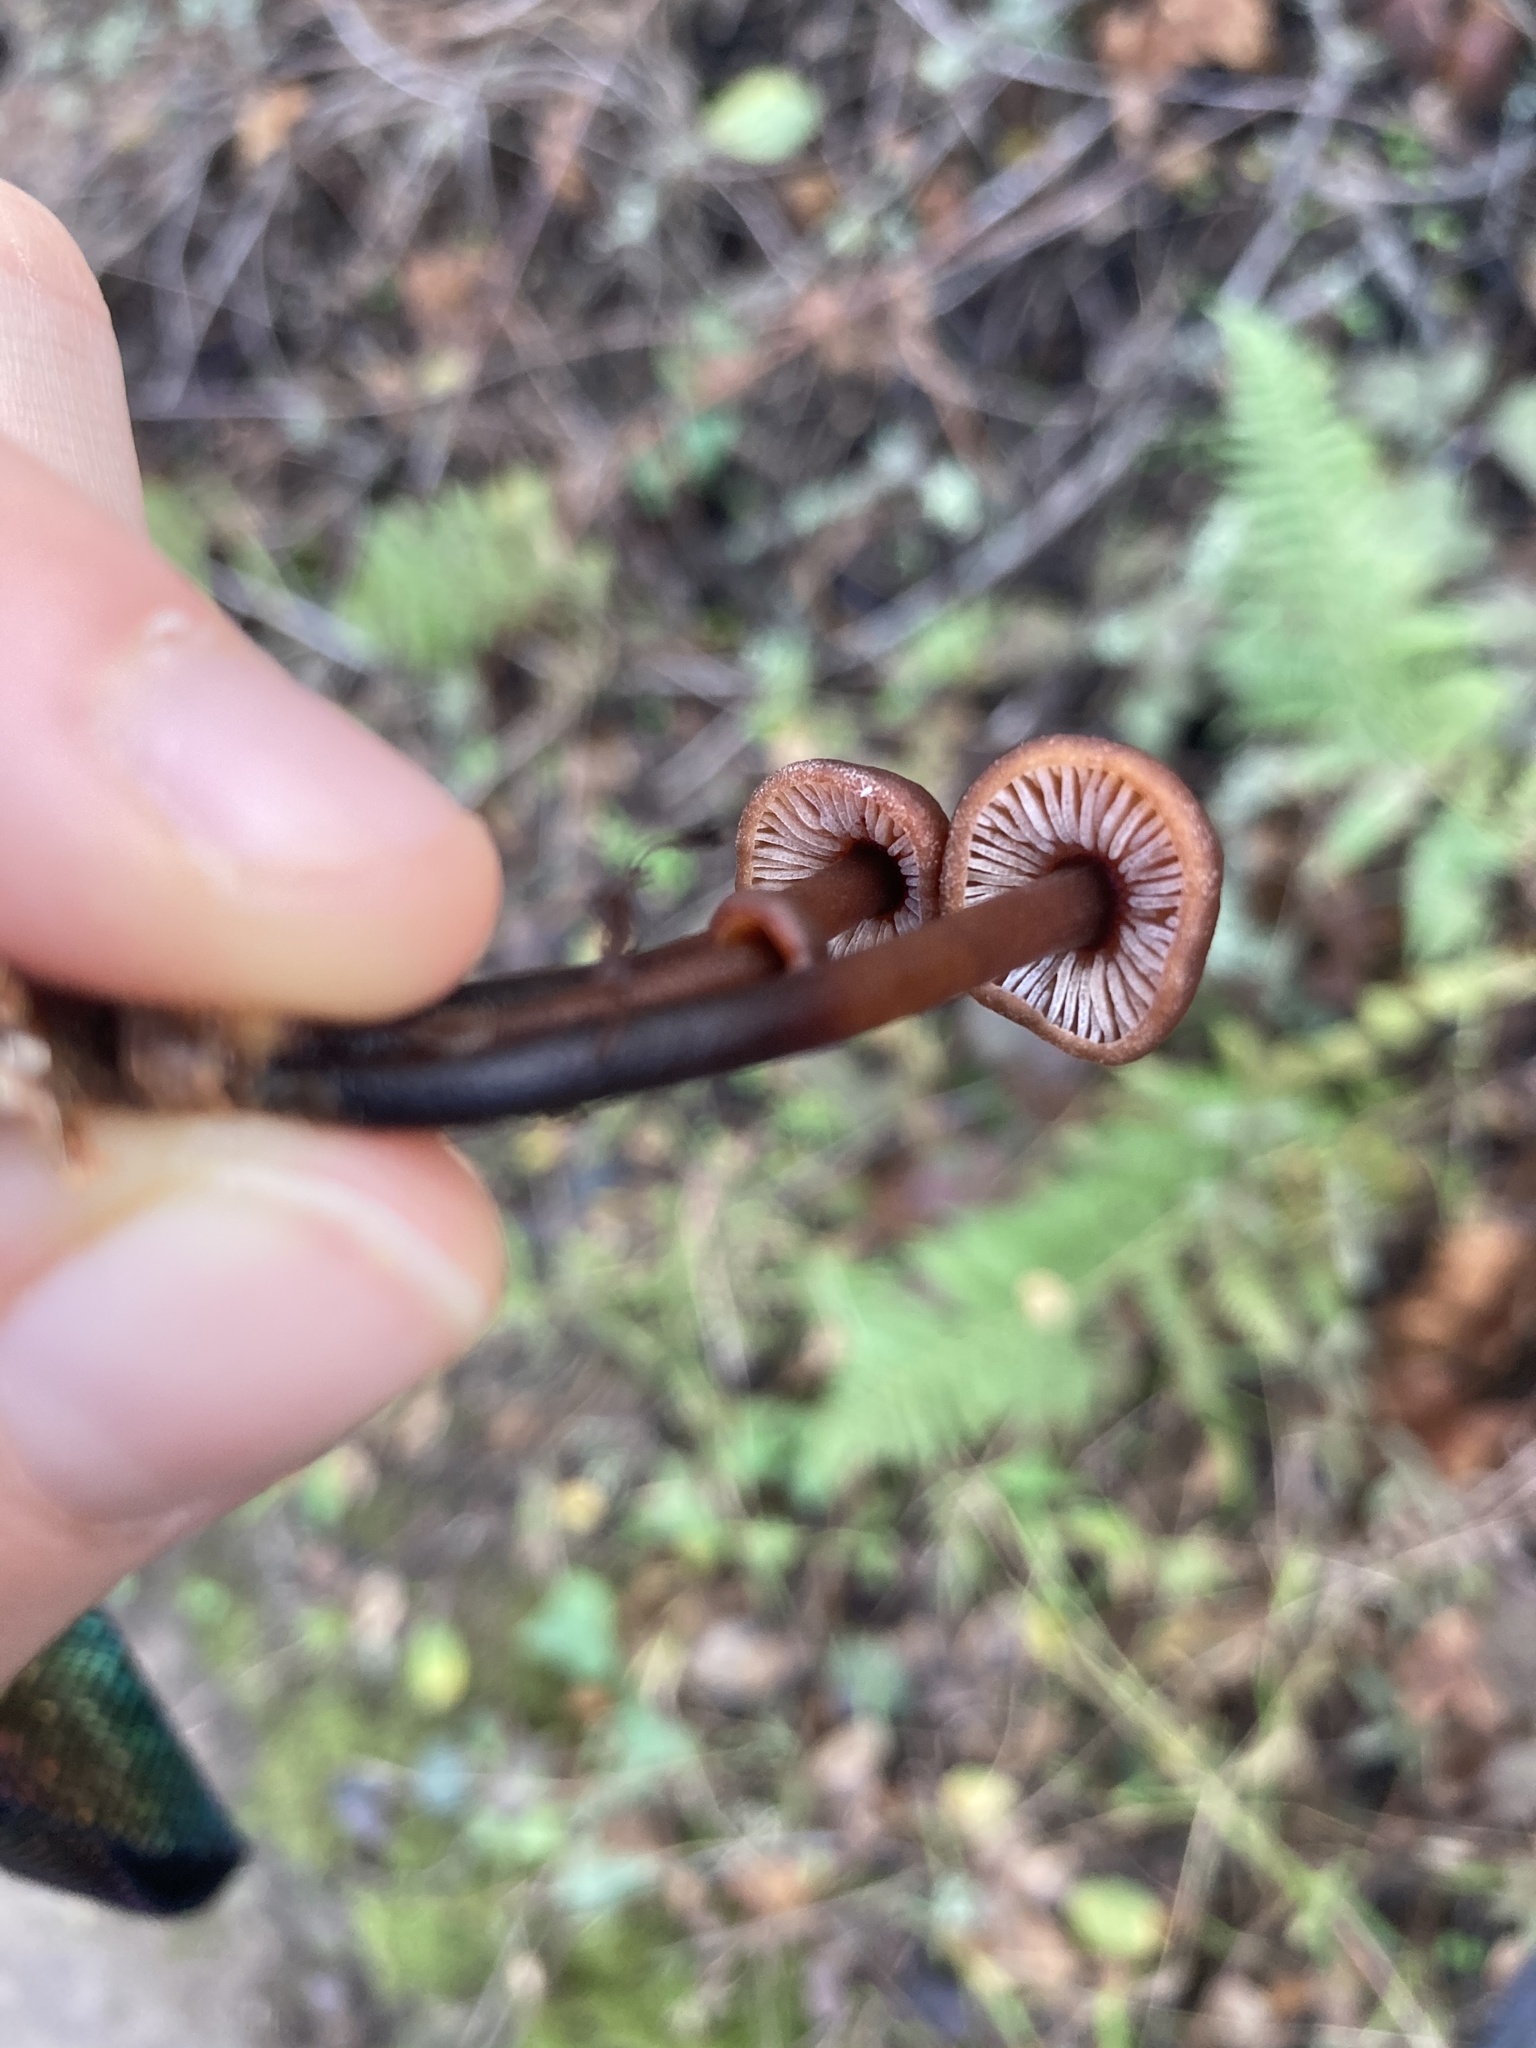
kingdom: Fungi
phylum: Basidiomycota
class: Agaricomycetes
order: Agaricales
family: Omphalotaceae
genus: Gymnopus
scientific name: Gymnopus brassicolens
